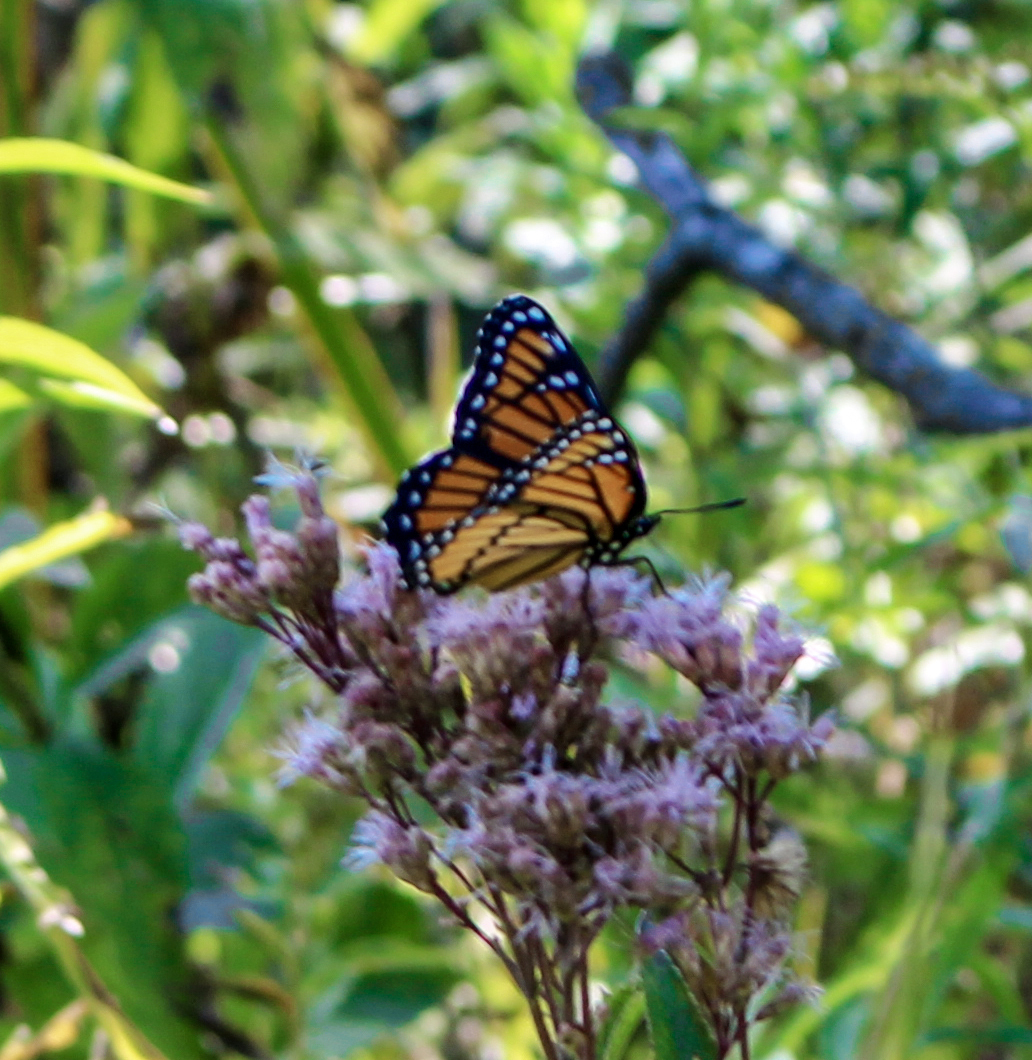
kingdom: Animalia
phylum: Arthropoda
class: Insecta
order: Lepidoptera
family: Nymphalidae
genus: Limenitis
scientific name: Limenitis archippus
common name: Viceroy
